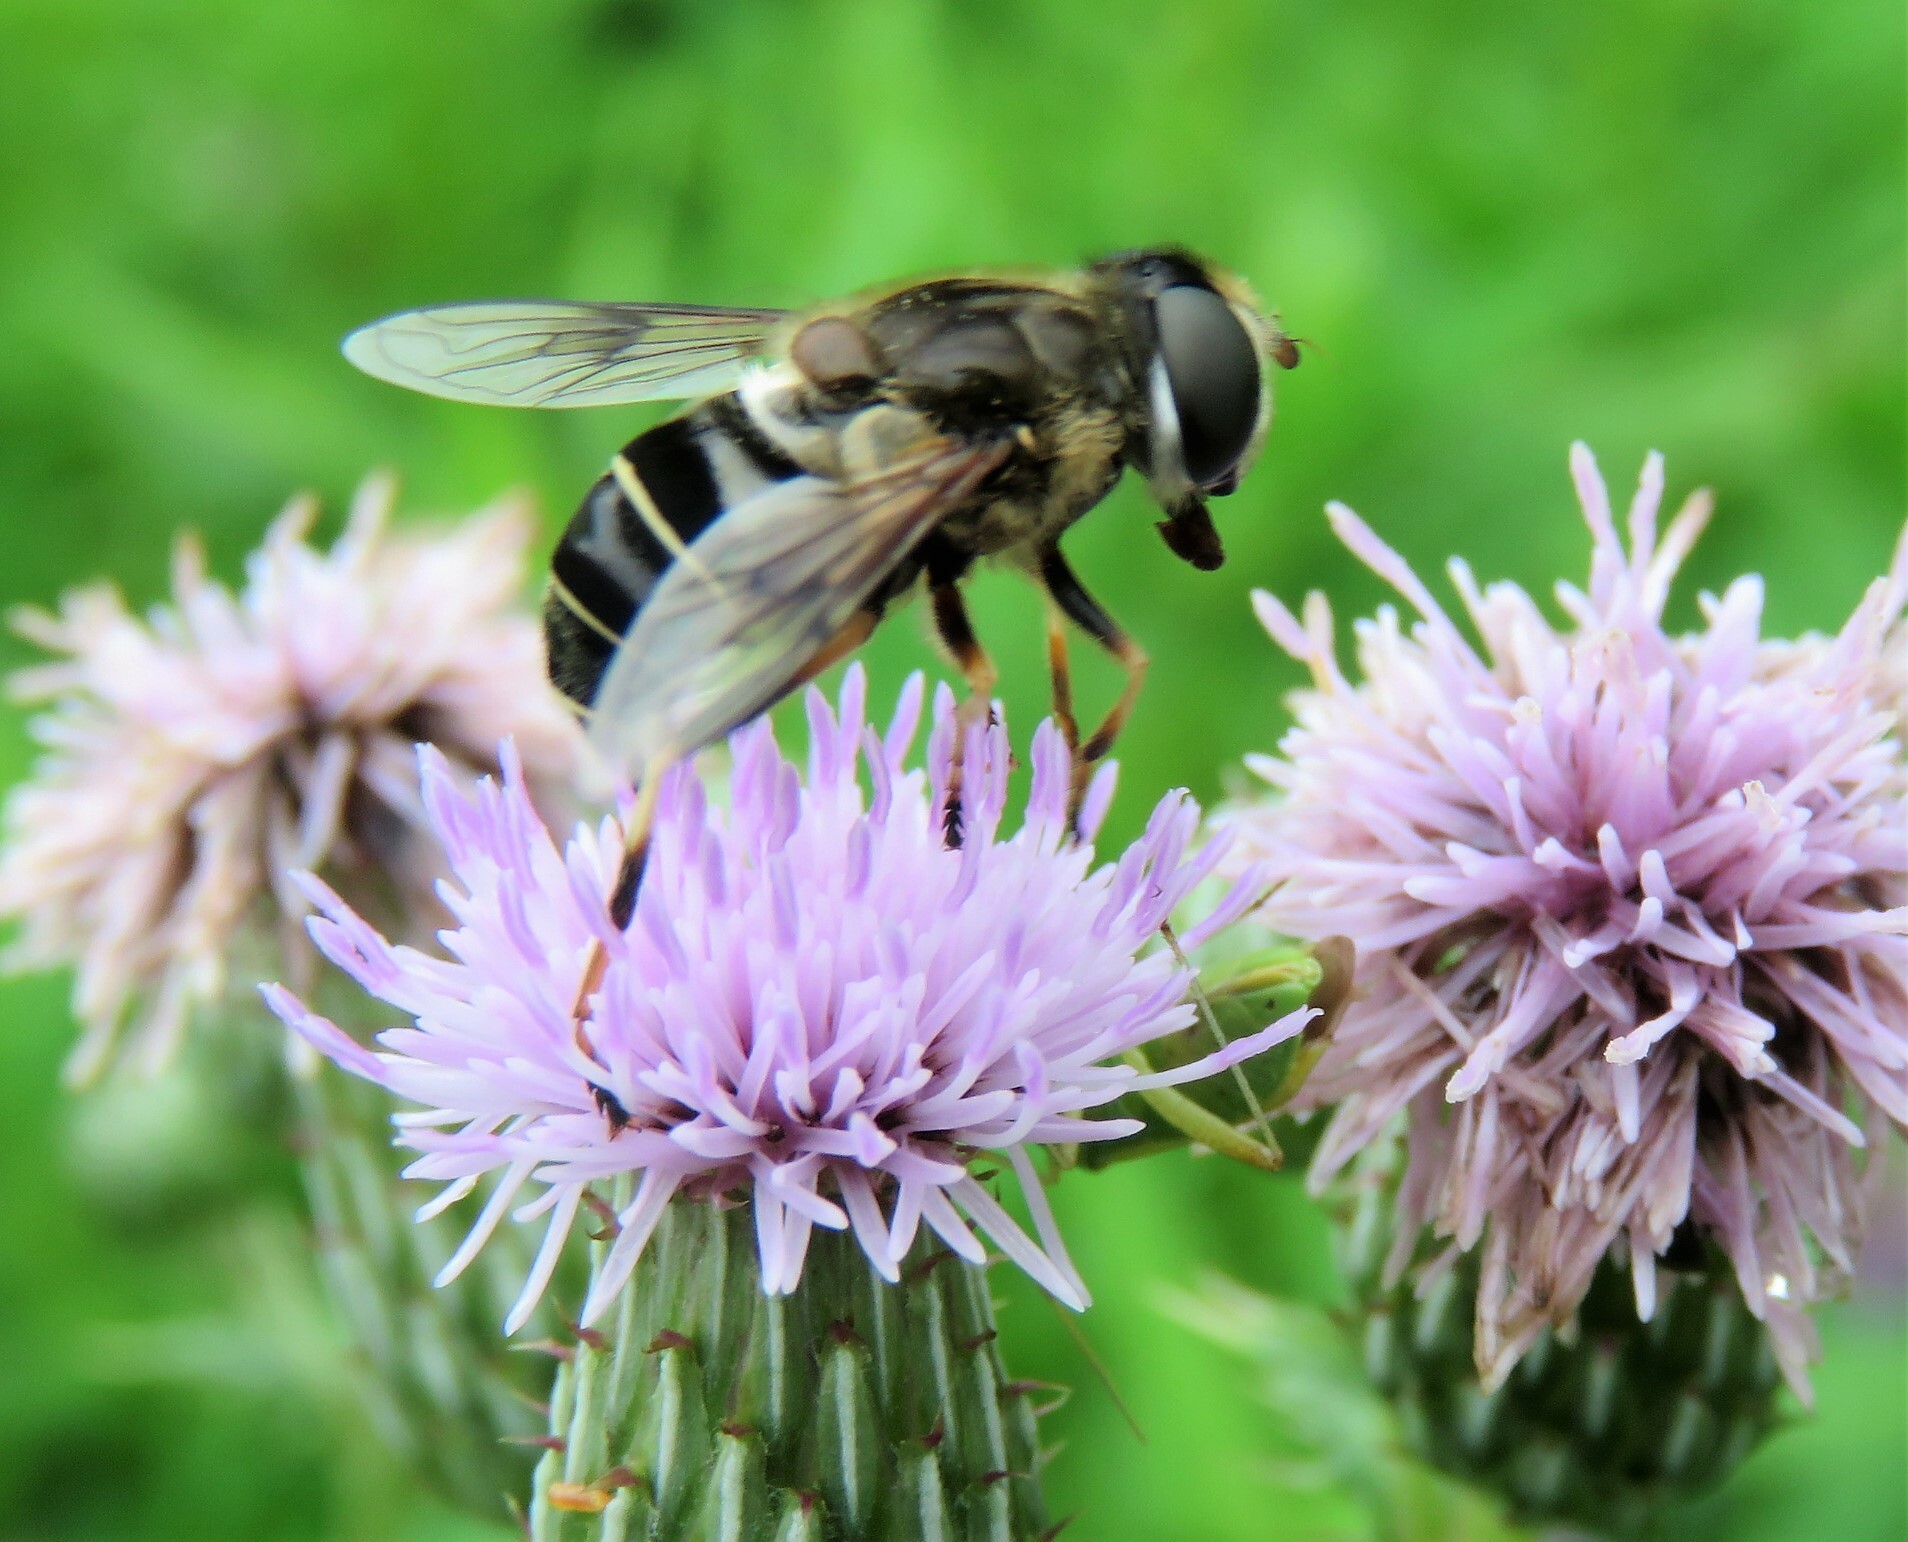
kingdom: Animalia
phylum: Arthropoda
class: Insecta
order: Diptera
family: Syrphidae
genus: Eristalis
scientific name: Eristalis obscura
